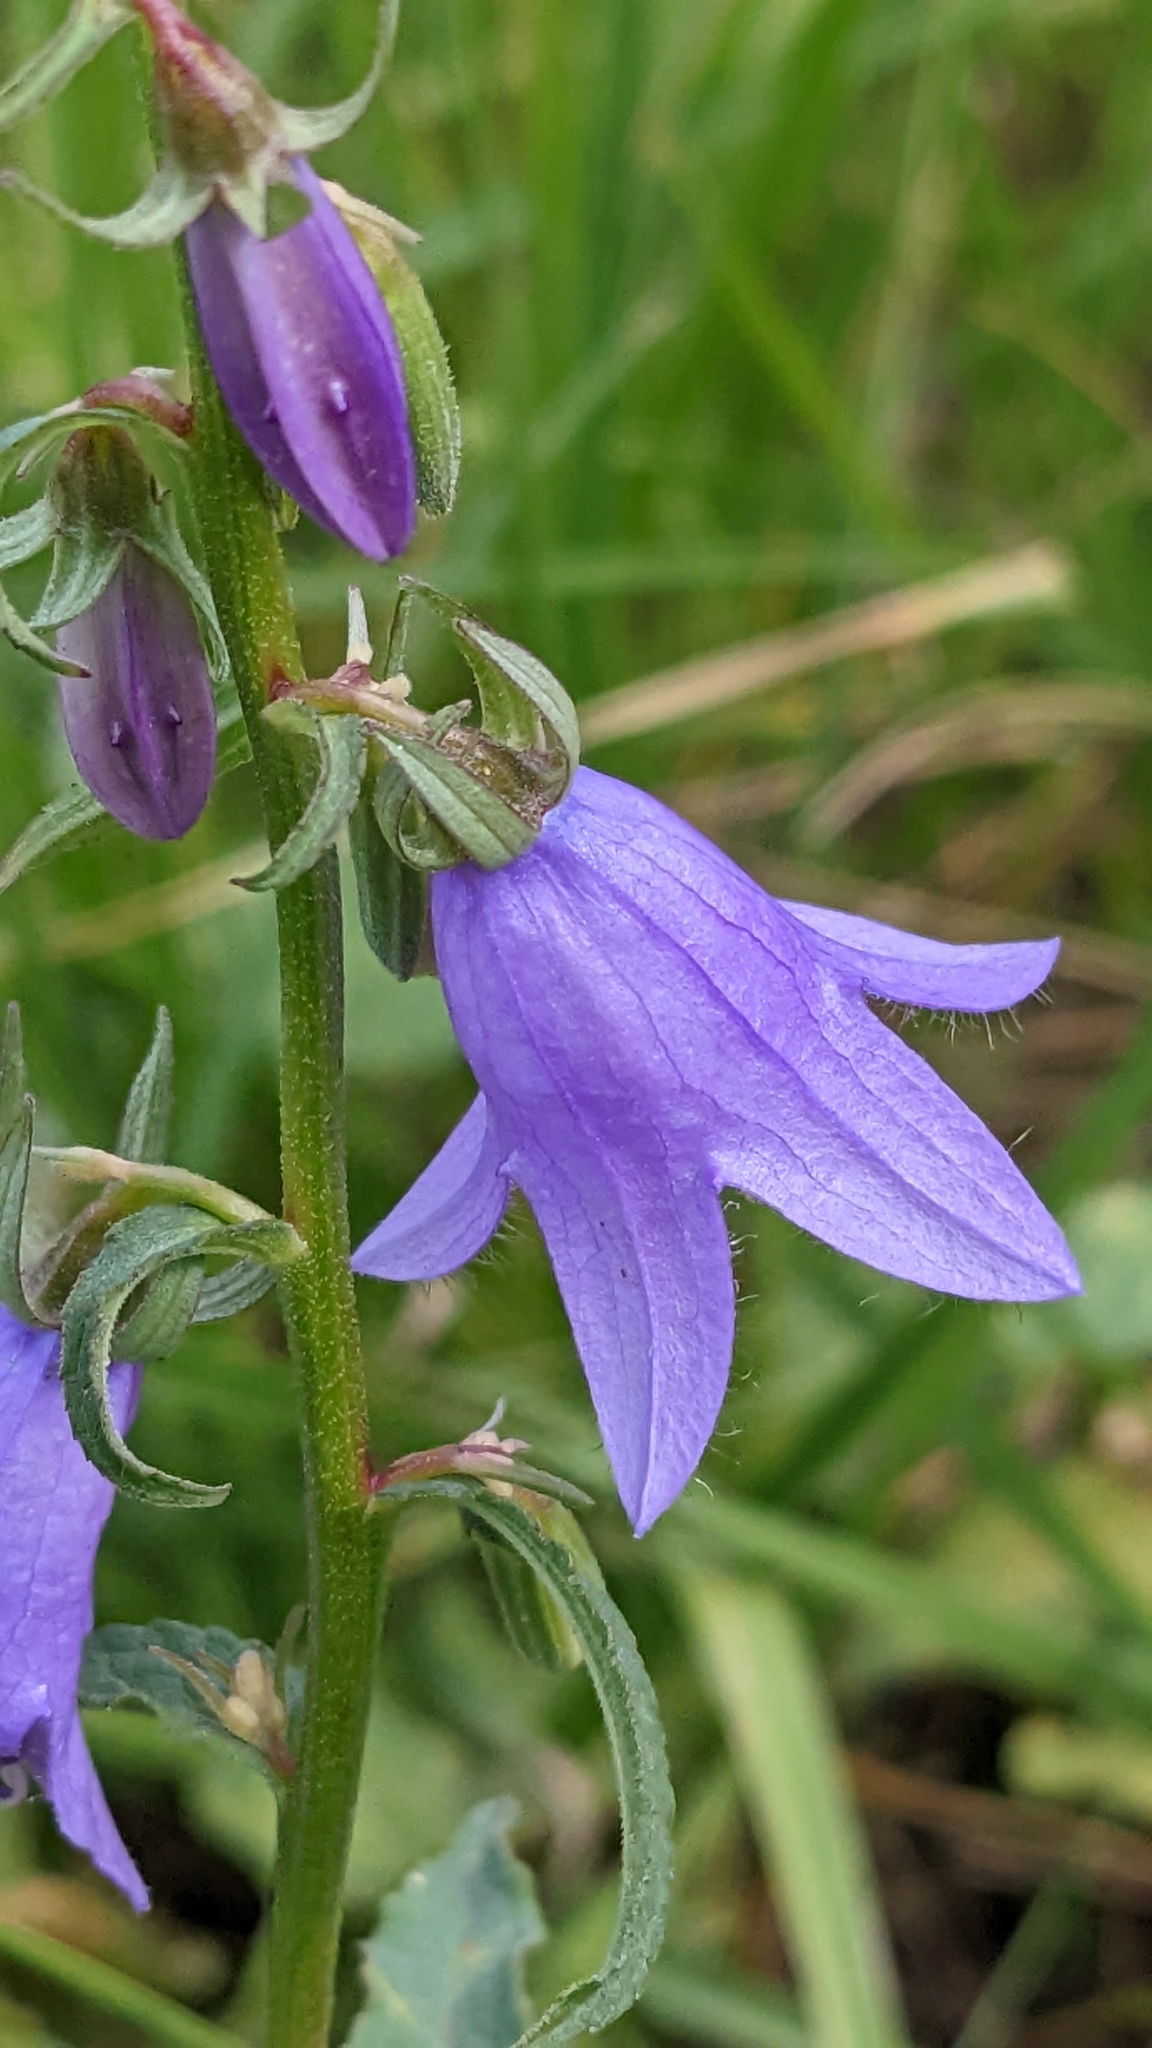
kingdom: Plantae
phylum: Tracheophyta
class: Magnoliopsida
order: Asterales
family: Campanulaceae
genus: Campanula
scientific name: Campanula rapunculoides
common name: Creeping bellflower
